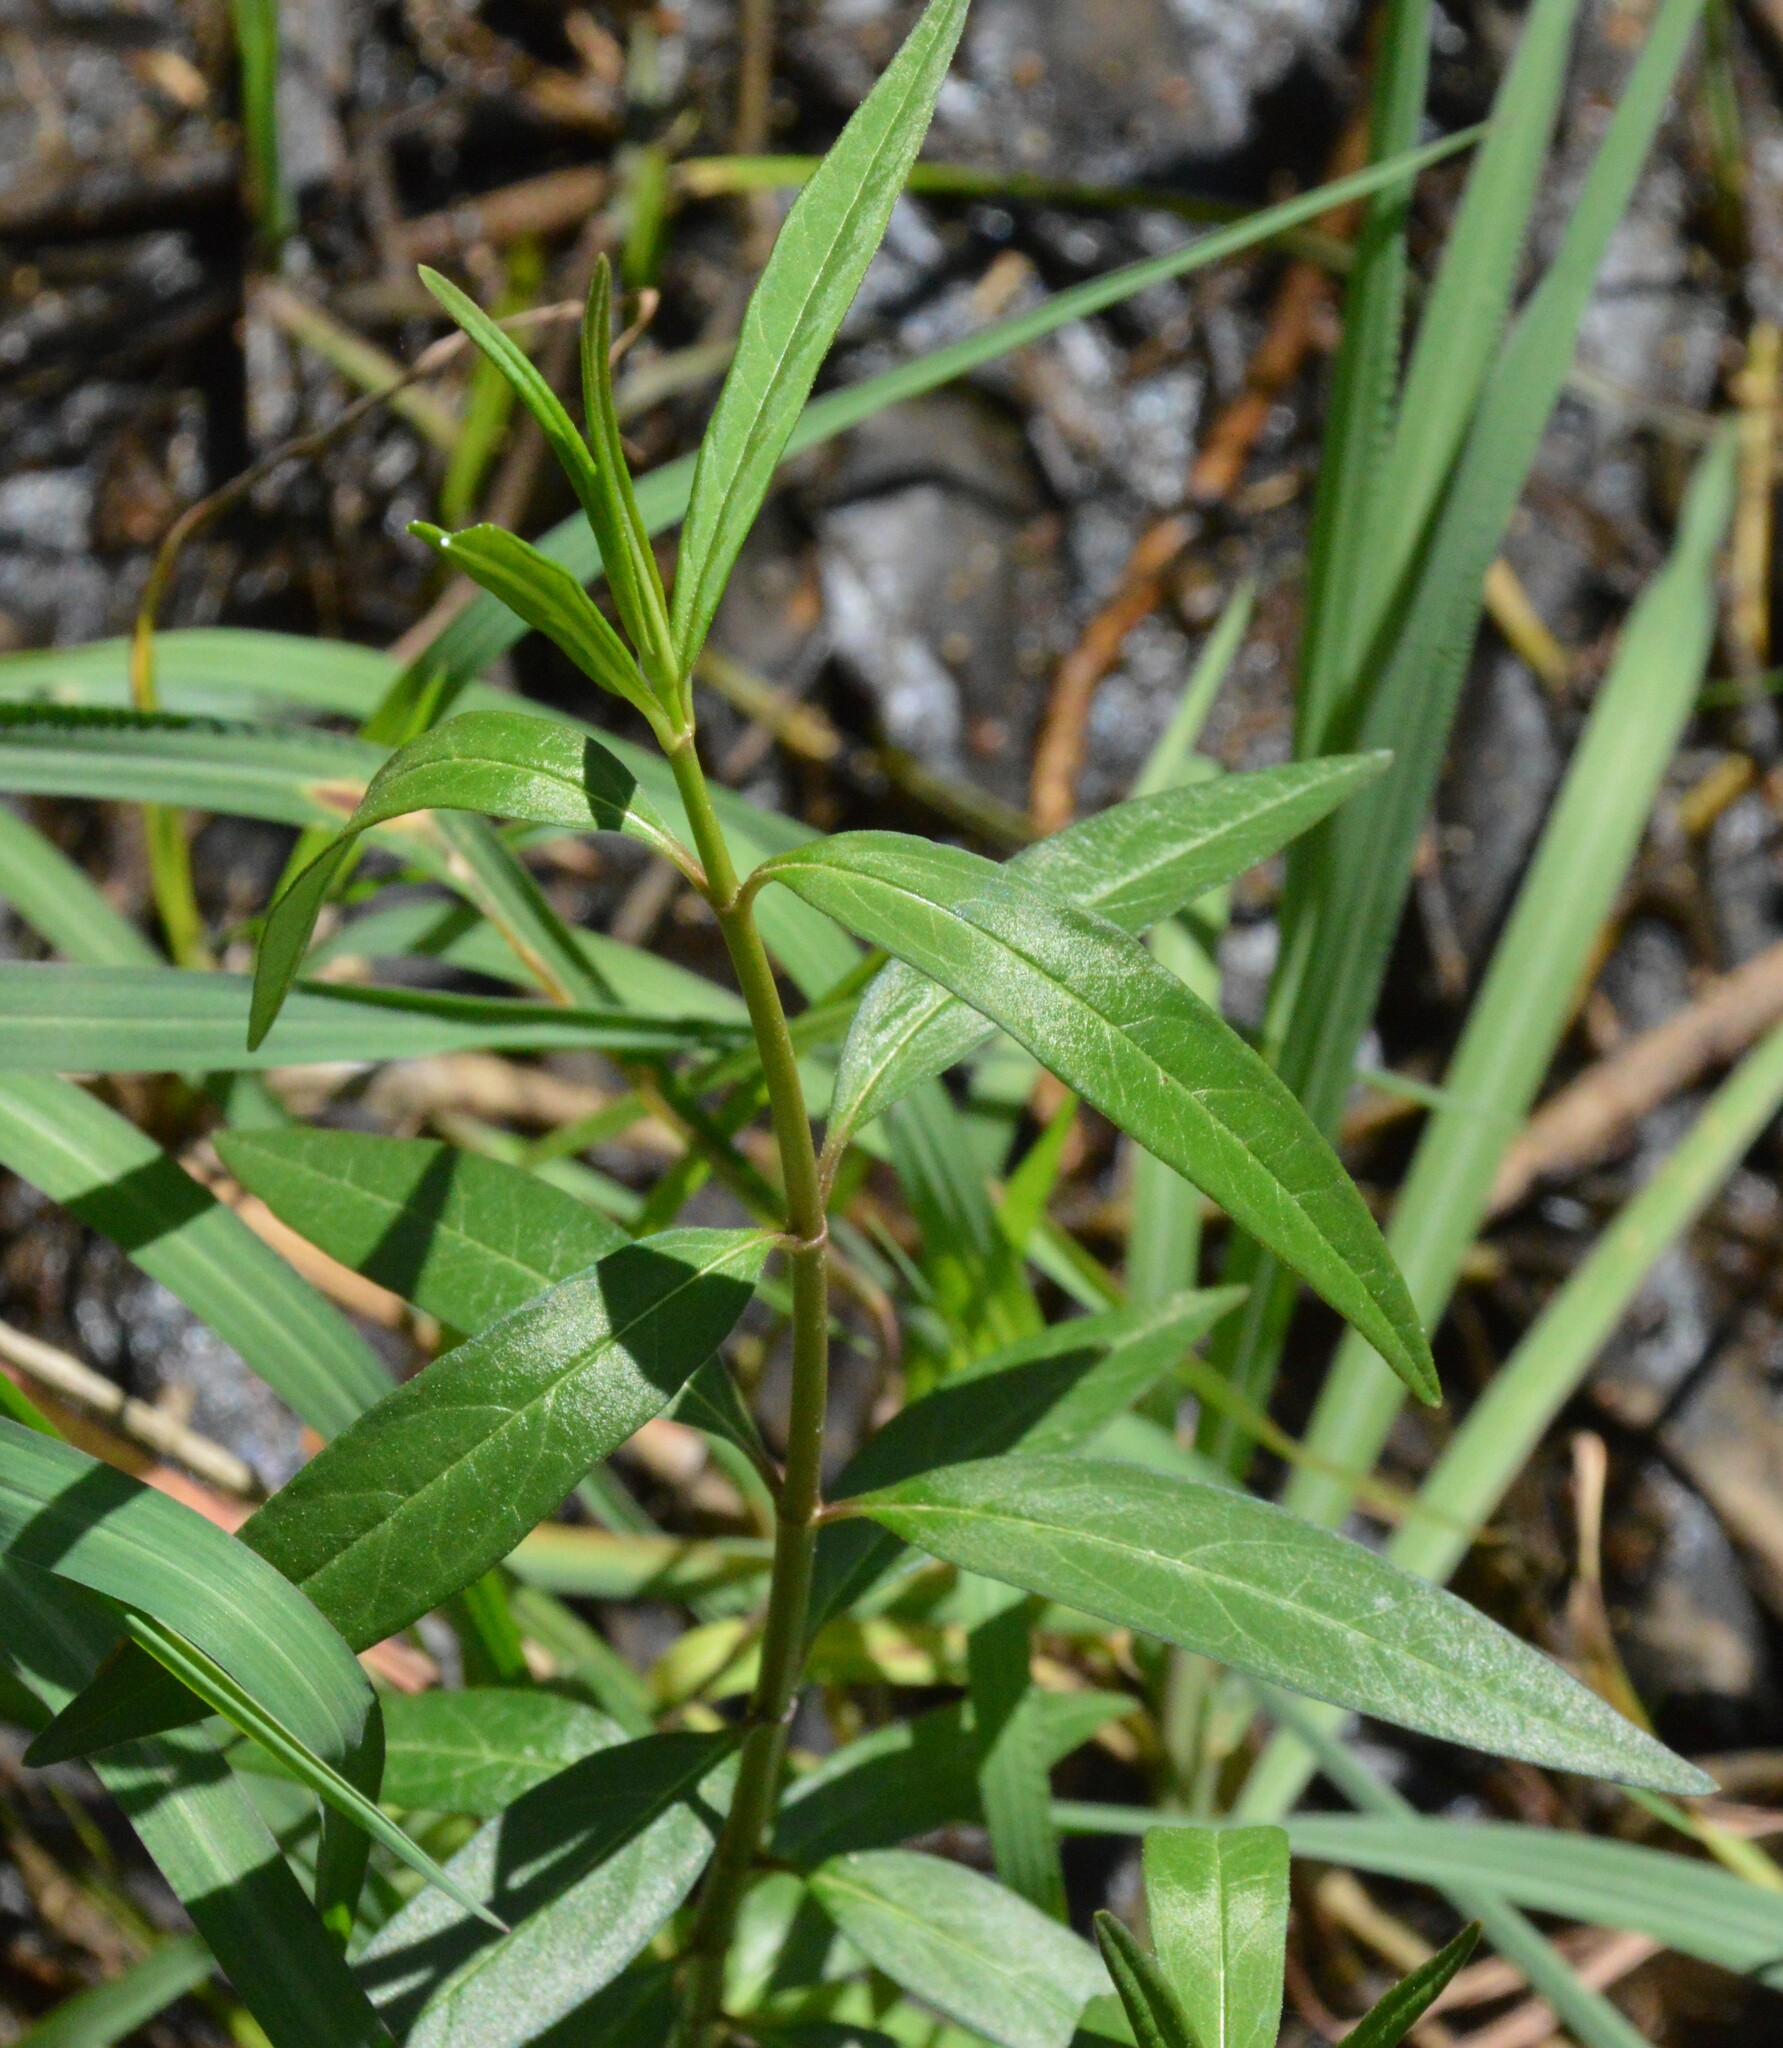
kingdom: Plantae
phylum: Tracheophyta
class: Magnoliopsida
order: Gentianales
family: Apocynaceae
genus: Asclepias
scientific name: Asclepias perennis
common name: Smooth-seed milkweed
